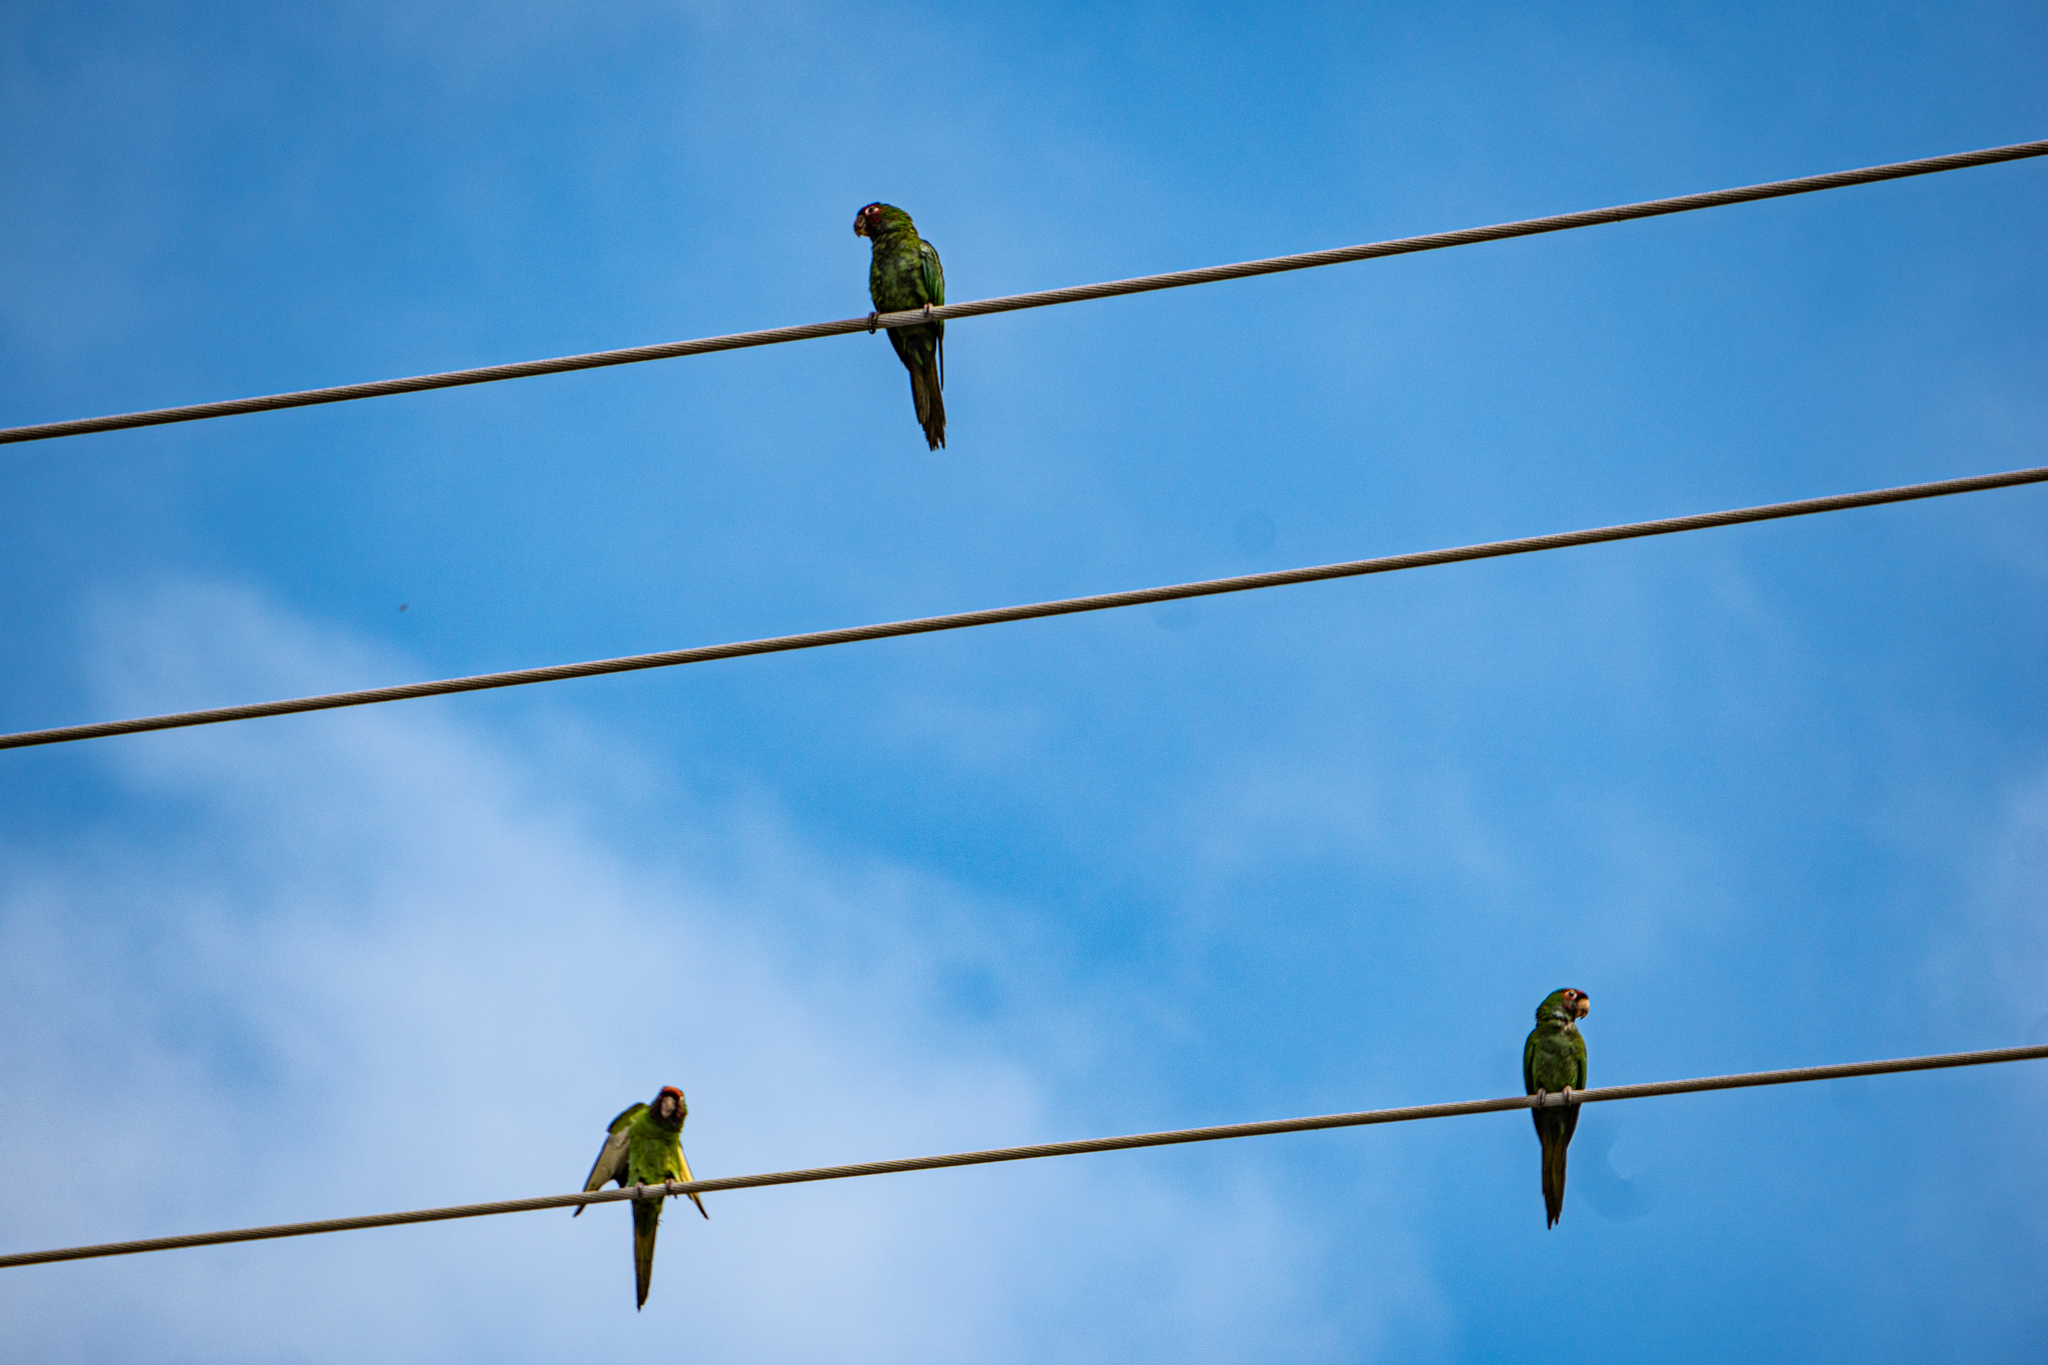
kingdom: Animalia
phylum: Chordata
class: Aves
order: Psittaciformes
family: Psittacidae
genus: Aratinga
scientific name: Aratinga mitrata
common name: Mitred parakeet
